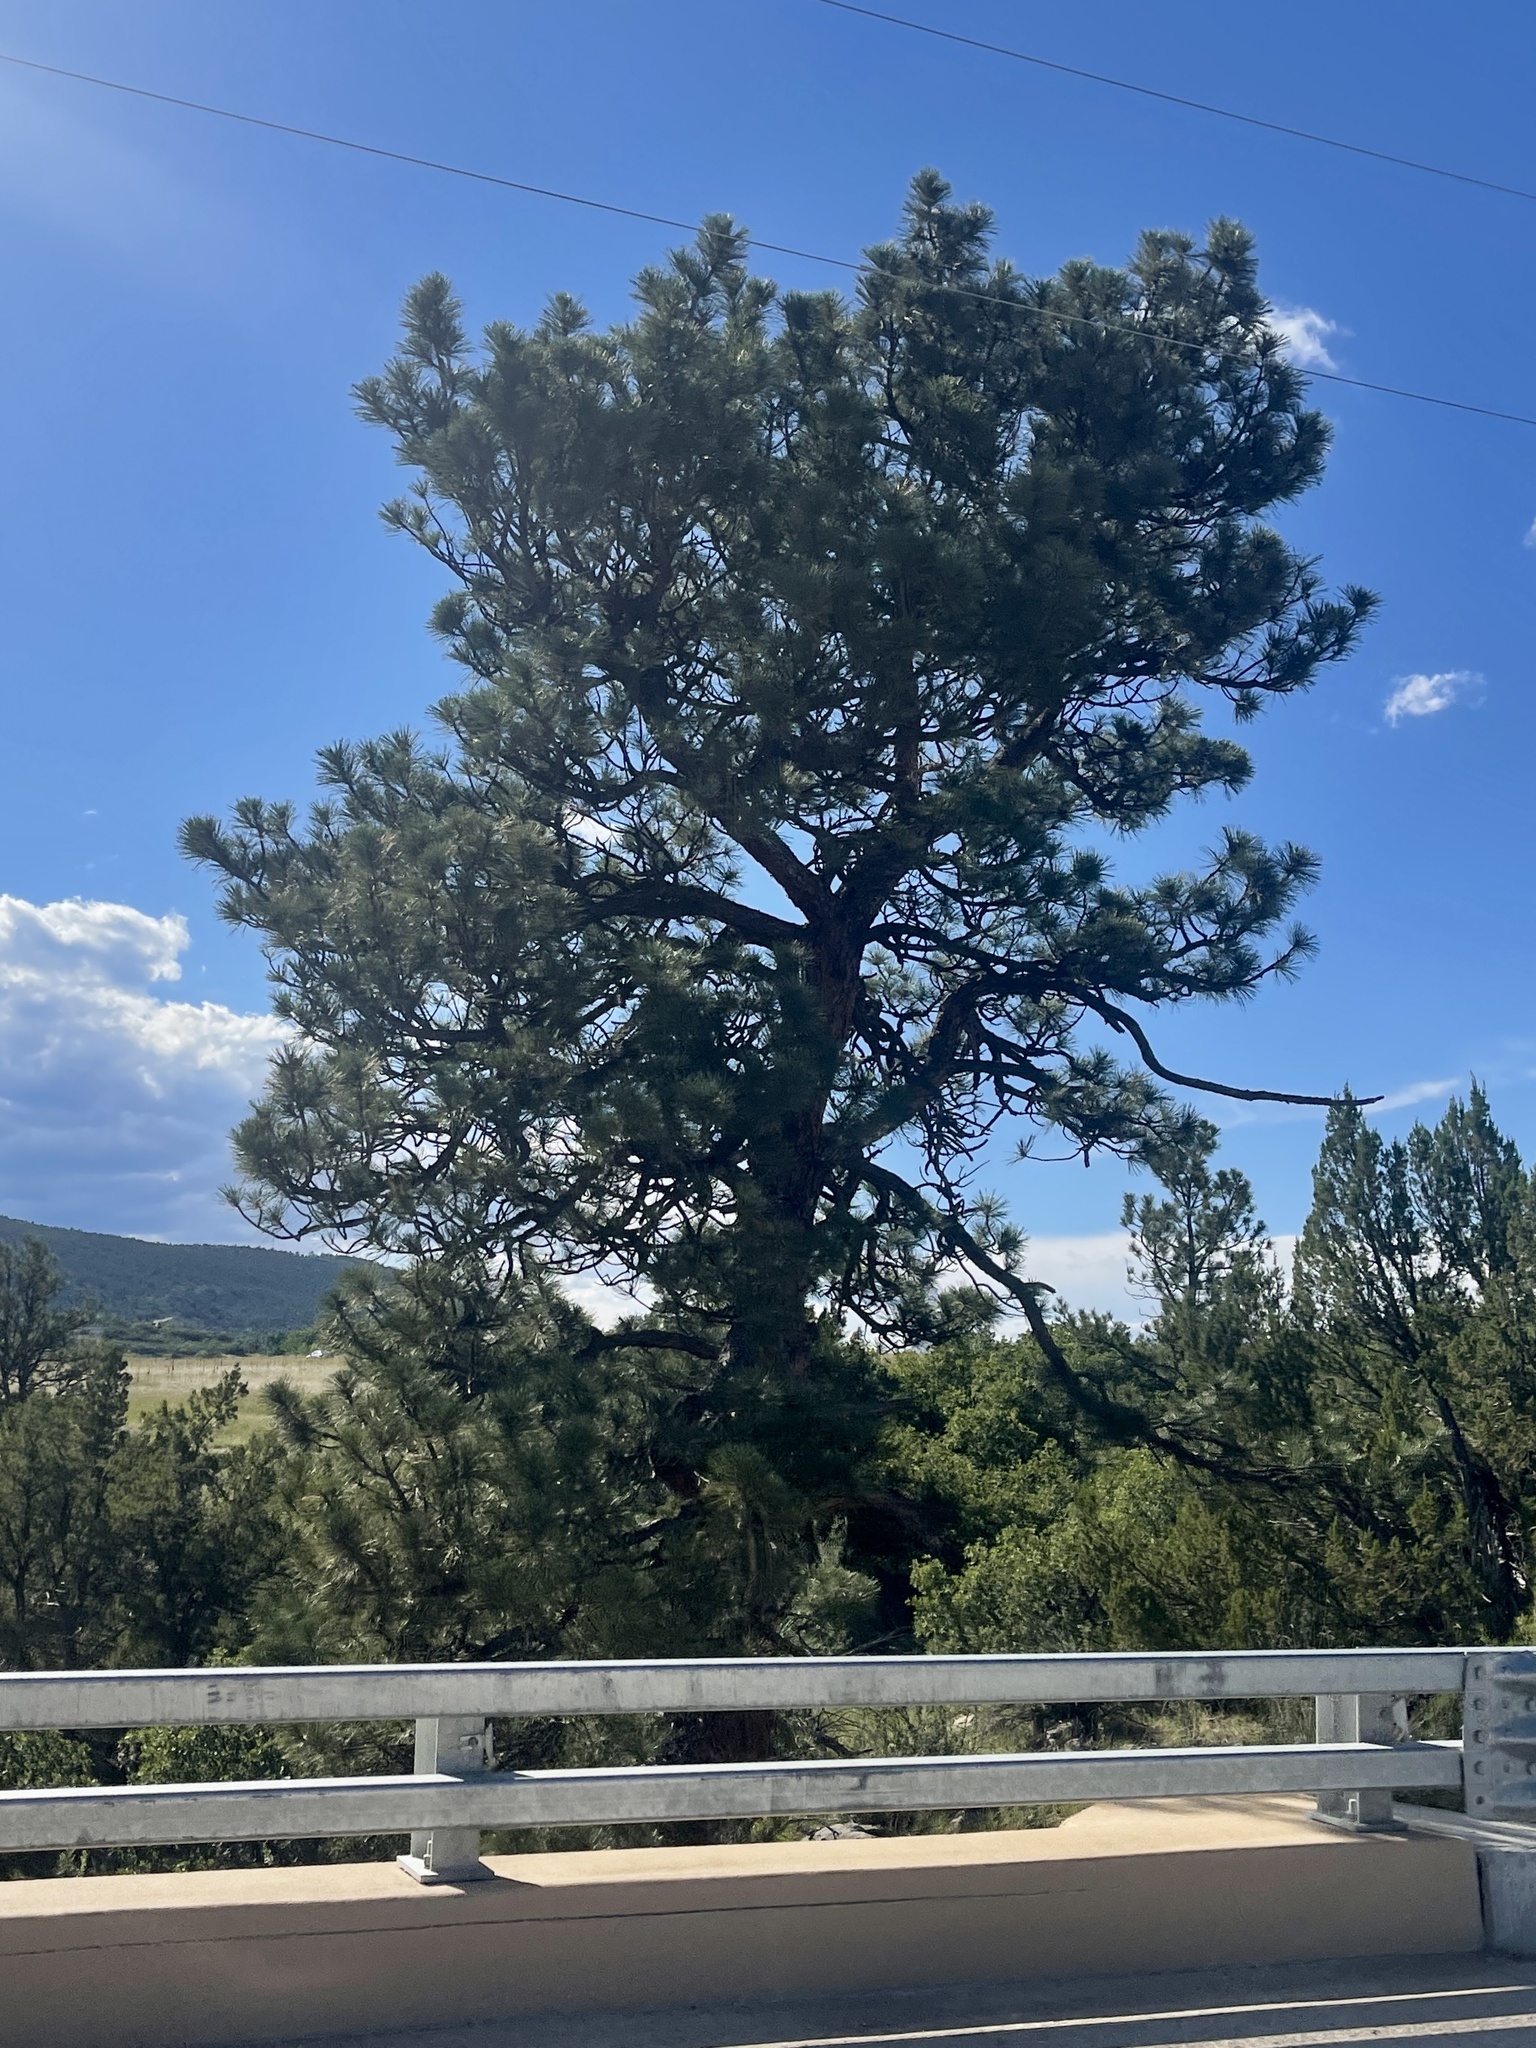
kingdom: Plantae
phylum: Tracheophyta
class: Pinopsida
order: Pinales
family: Pinaceae
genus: Pinus
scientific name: Pinus ponderosa
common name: Western yellow-pine
